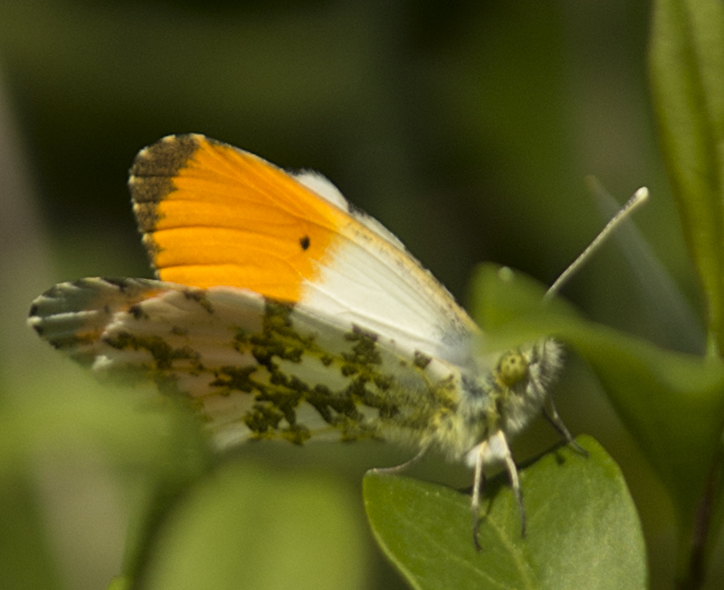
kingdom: Animalia
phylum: Arthropoda
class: Insecta
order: Lepidoptera
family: Pieridae
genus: Anthocharis
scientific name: Anthocharis cardamines
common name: Orange-tip
